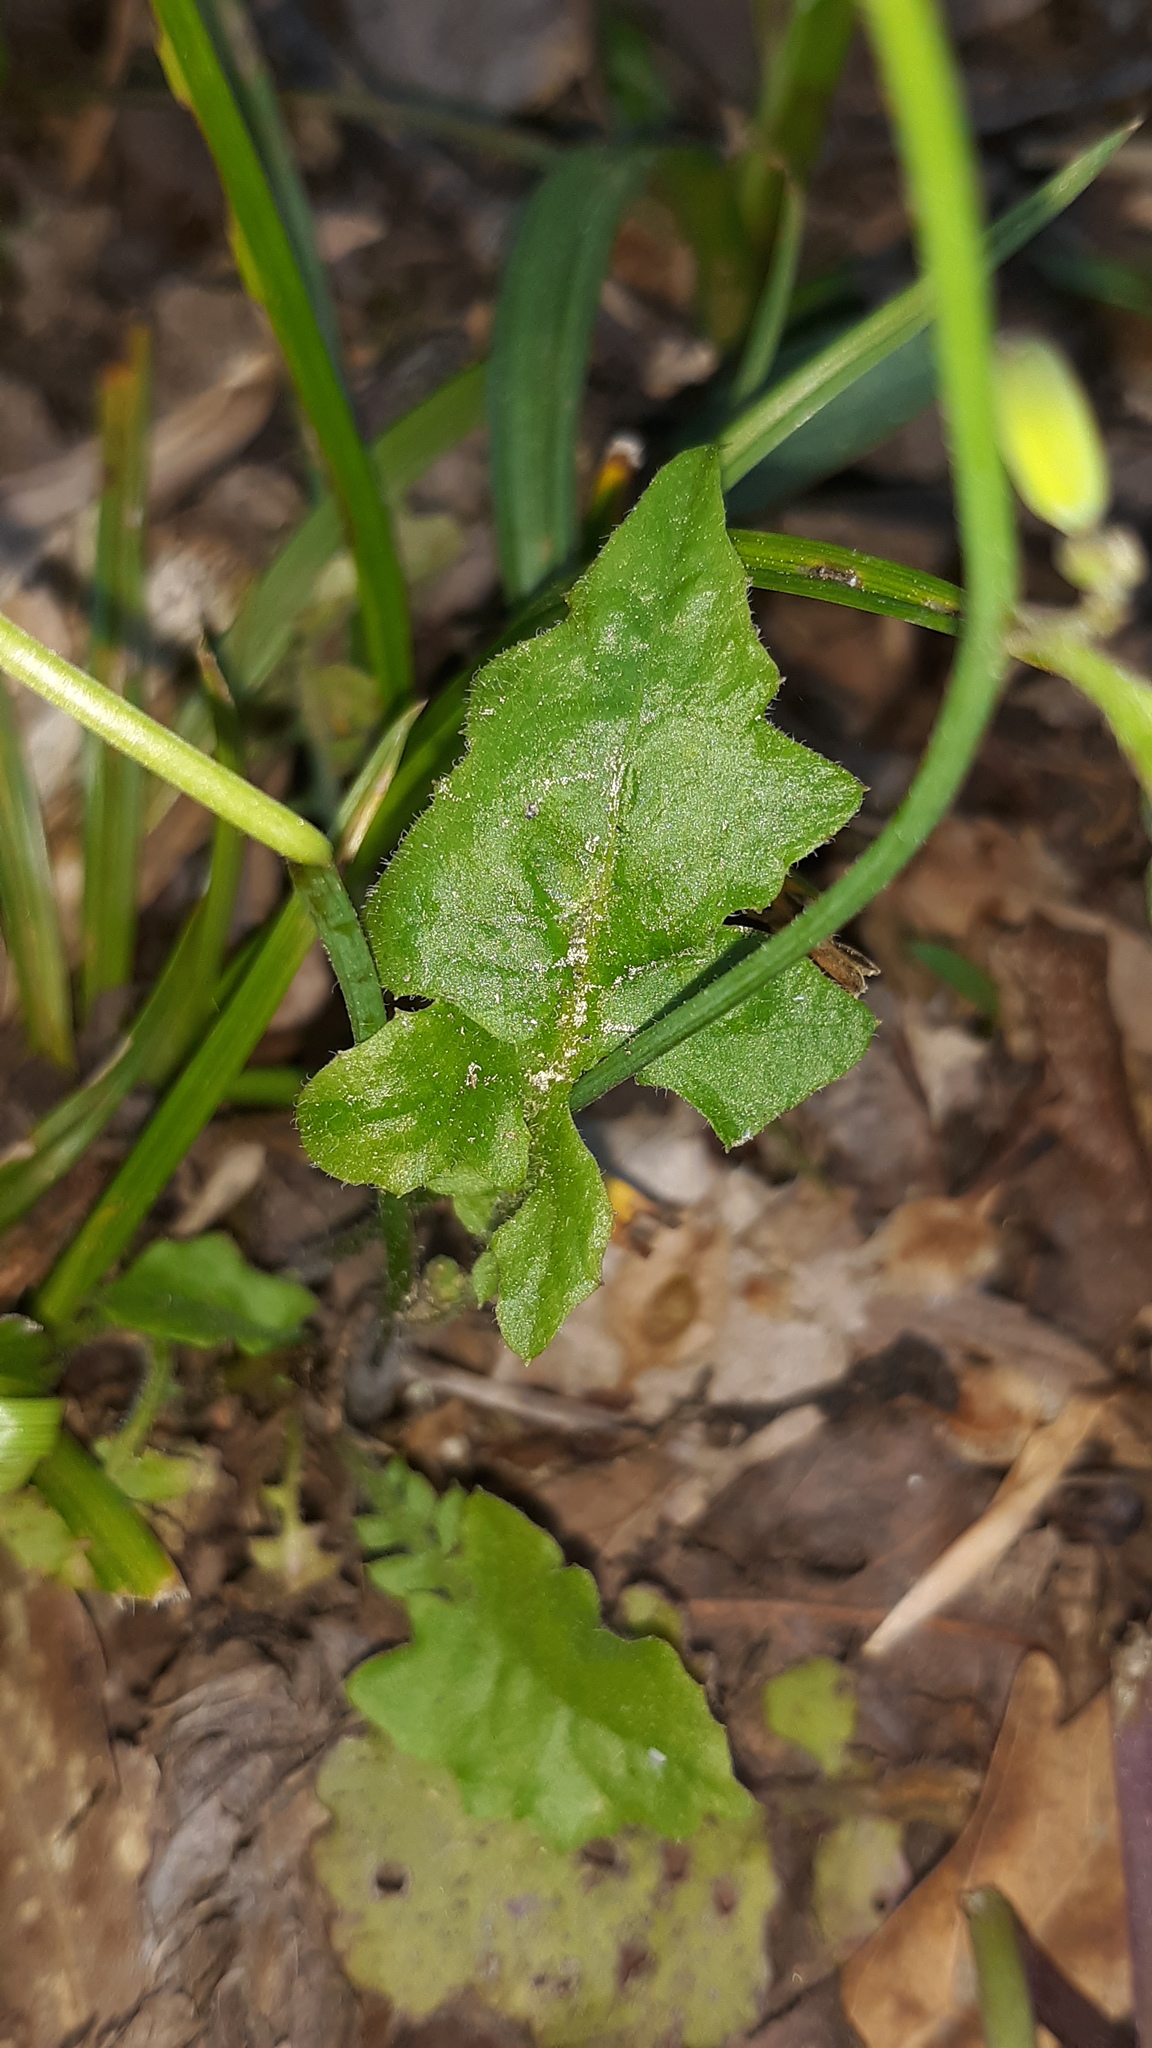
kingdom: Plantae
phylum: Tracheophyta
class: Magnoliopsida
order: Asterales
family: Asteraceae
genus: Youngia
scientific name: Youngia japonica
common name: Oriental false hawksbeard
